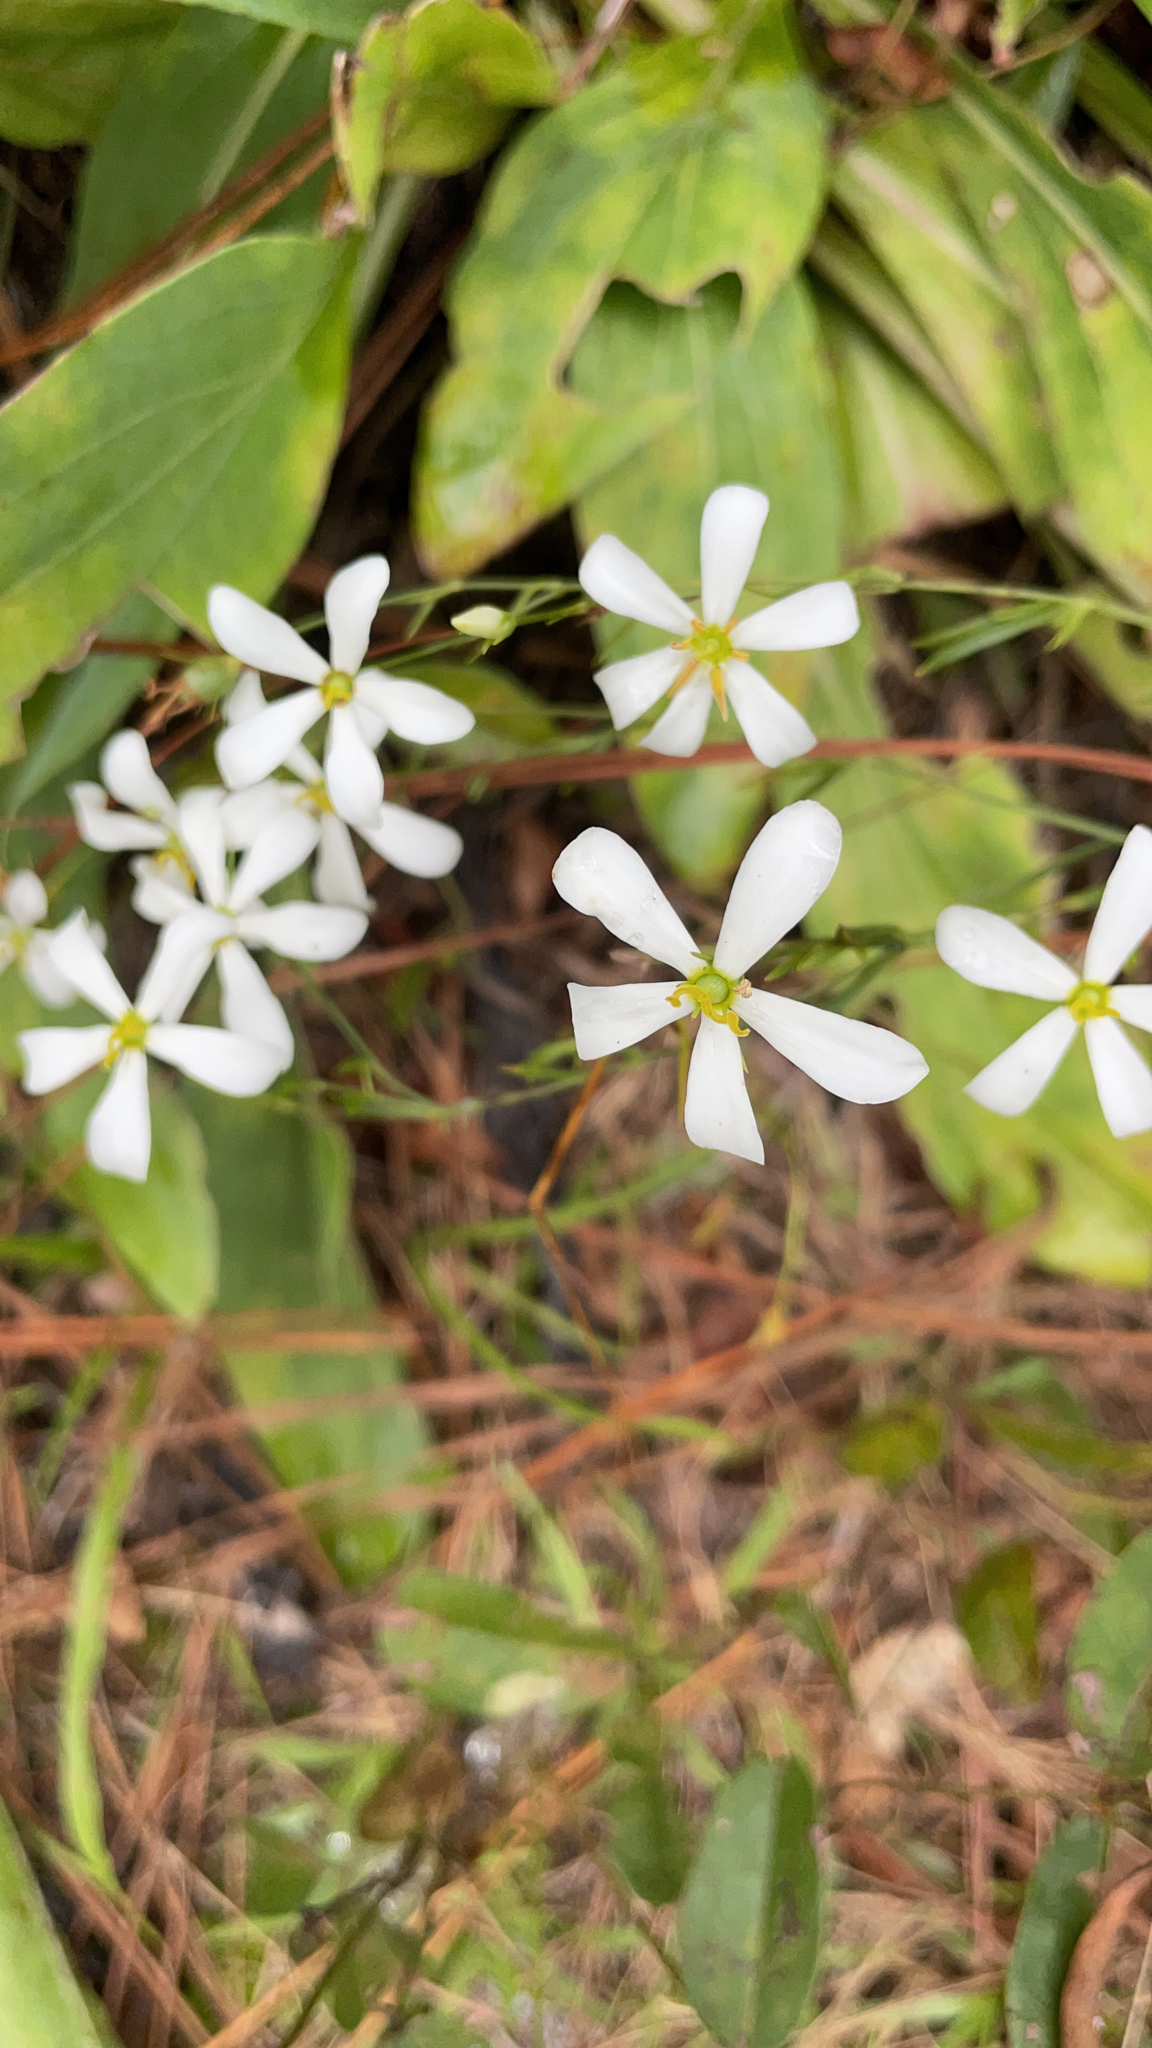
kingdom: Plantae
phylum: Tracheophyta
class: Magnoliopsida
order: Gentianales
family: Gentianaceae
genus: Sabatia
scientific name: Sabatia brevifolia
